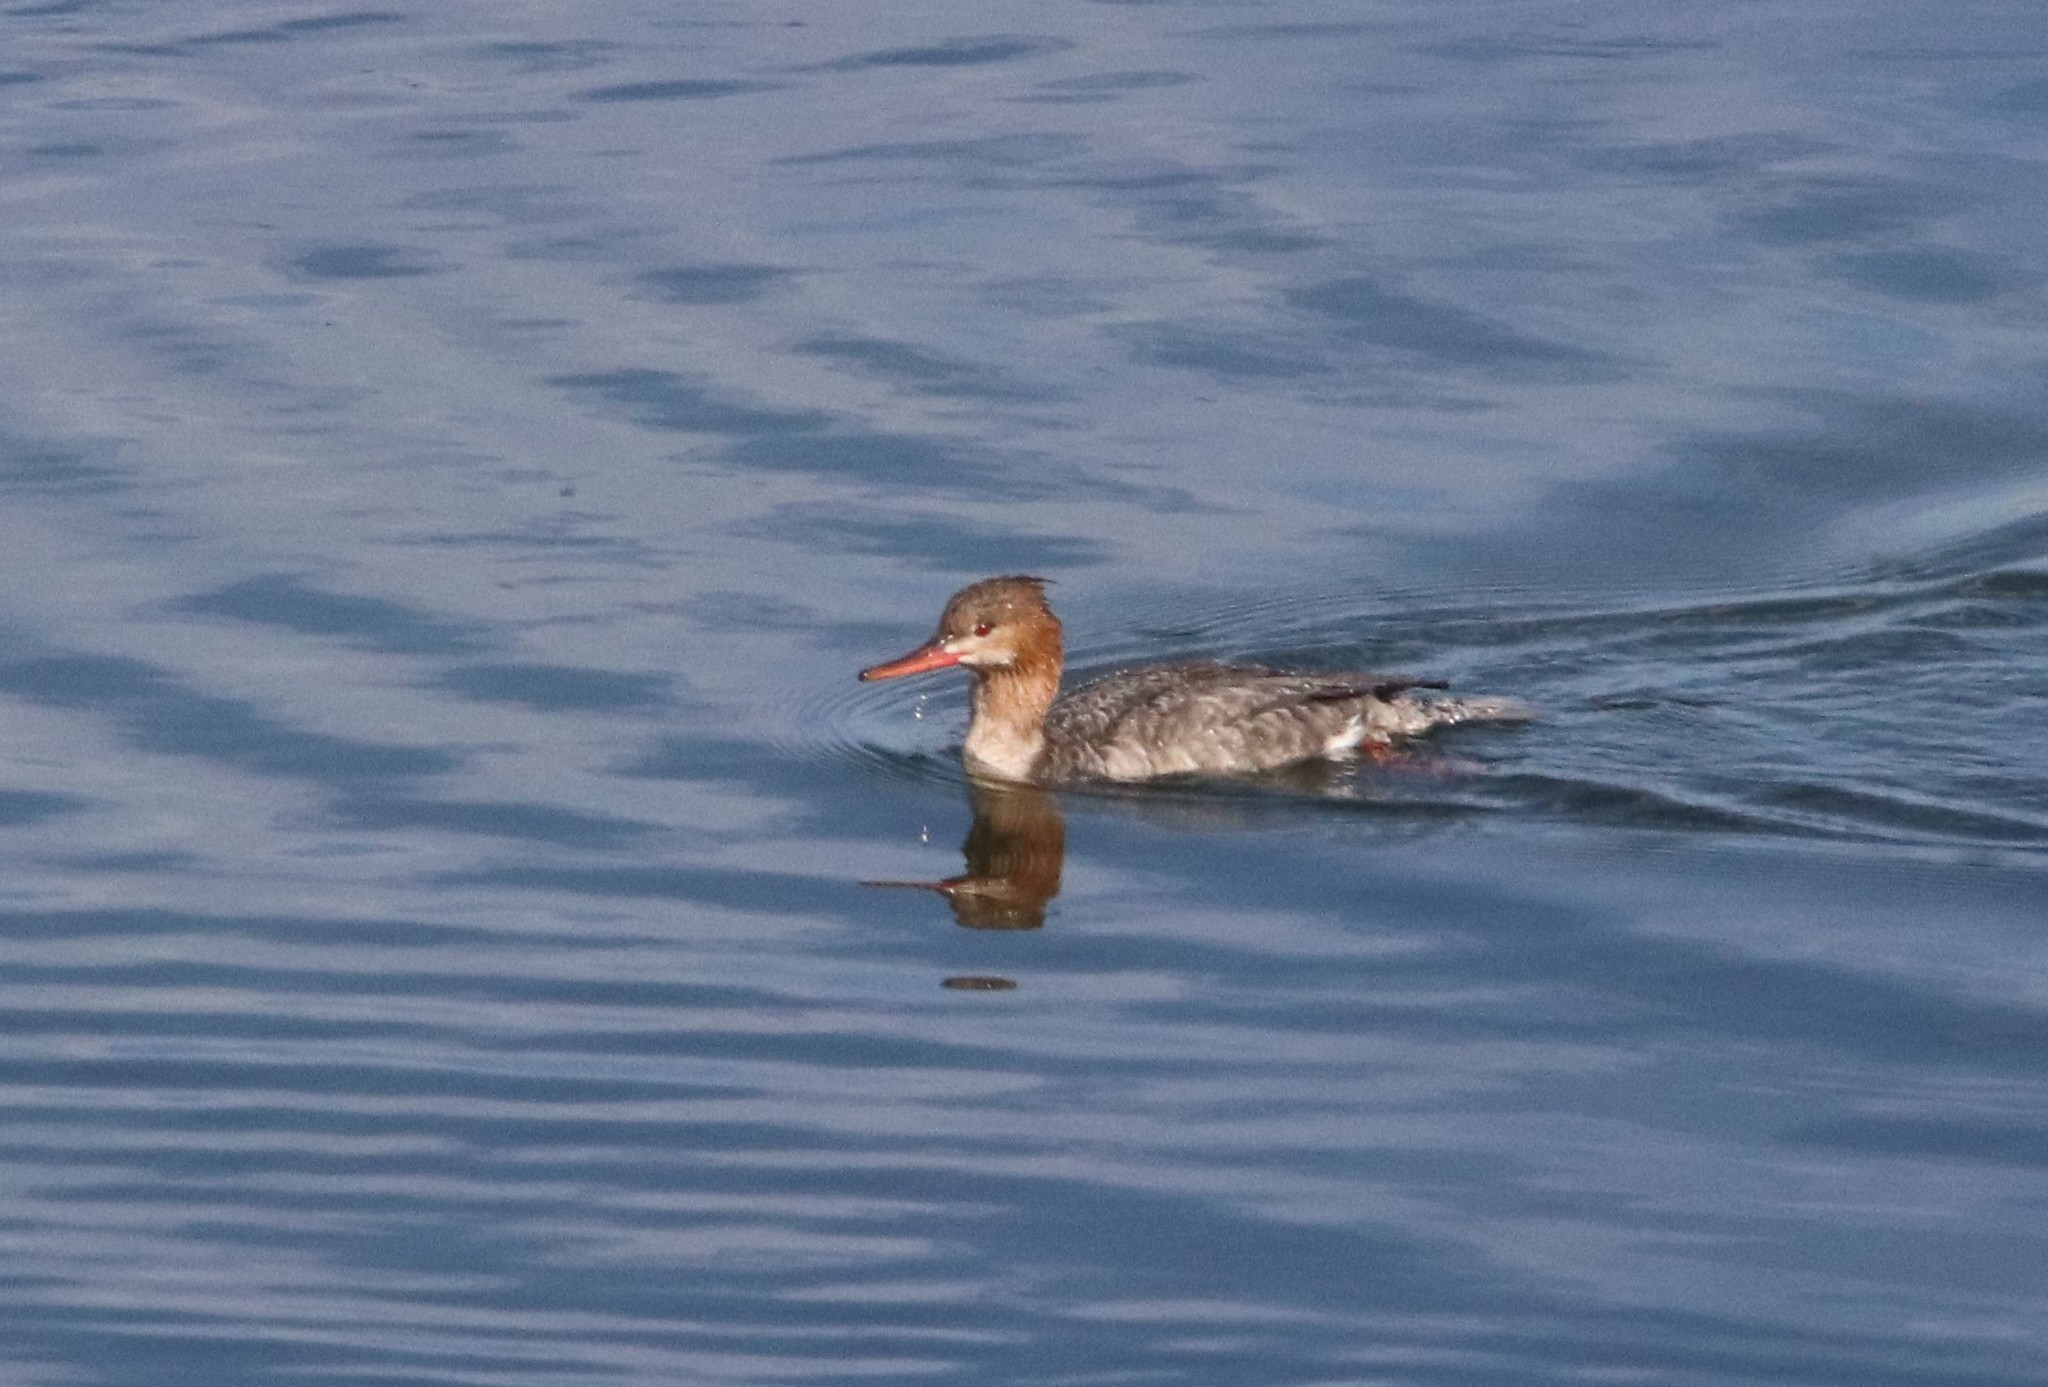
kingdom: Animalia
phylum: Chordata
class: Aves
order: Anseriformes
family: Anatidae
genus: Mergus
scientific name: Mergus serrator
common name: Red-breasted merganser
